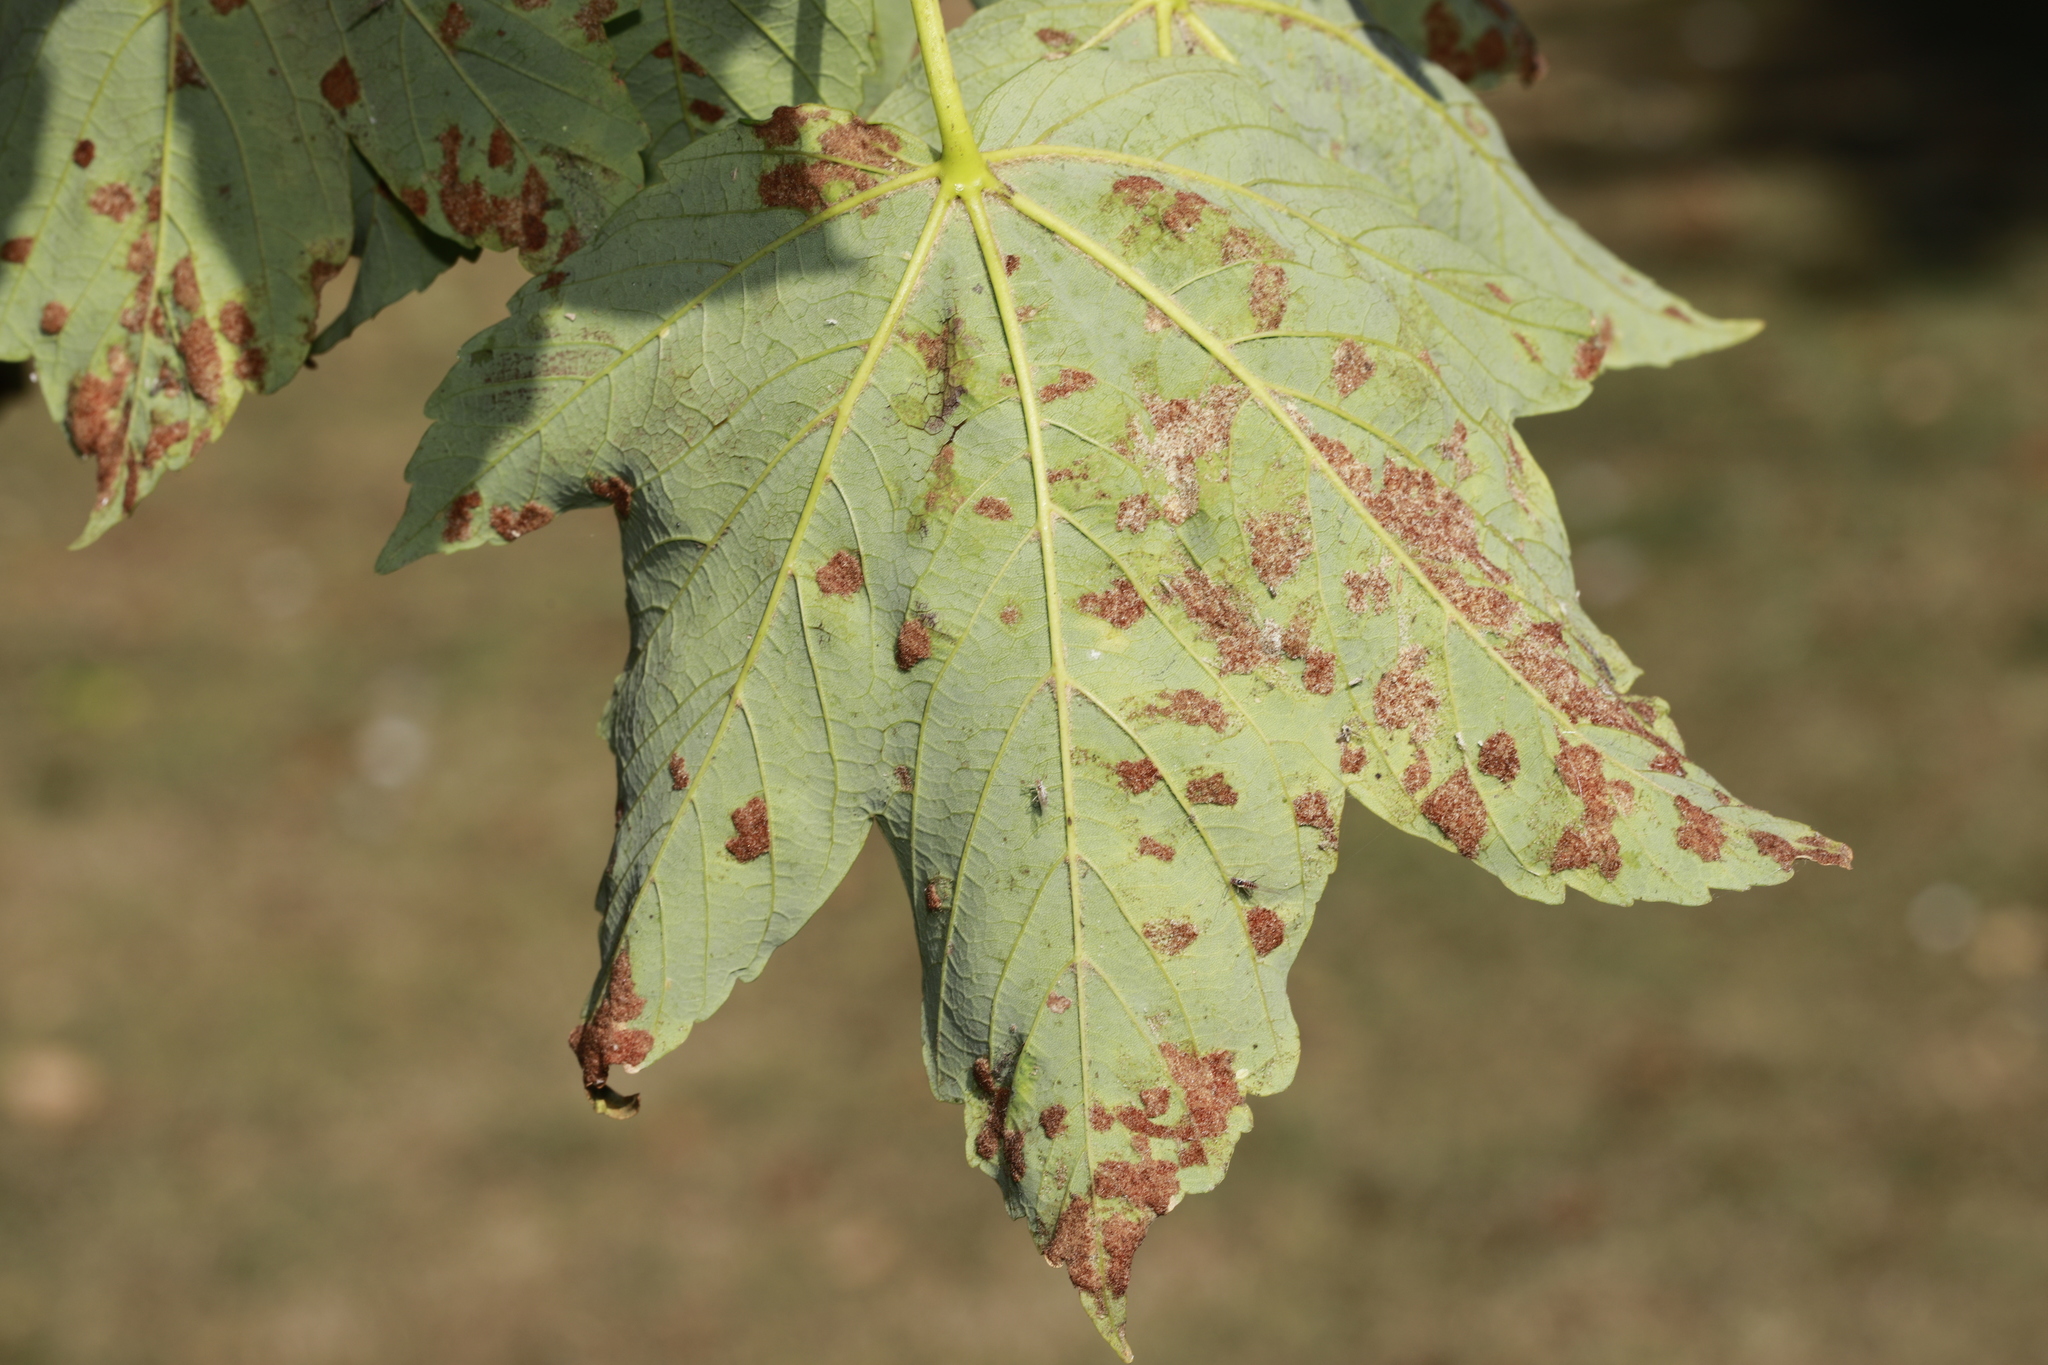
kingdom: Animalia
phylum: Arthropoda
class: Arachnida
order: Trombidiformes
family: Eriophyidae
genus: Aceria
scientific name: Aceria pseudoplatani
